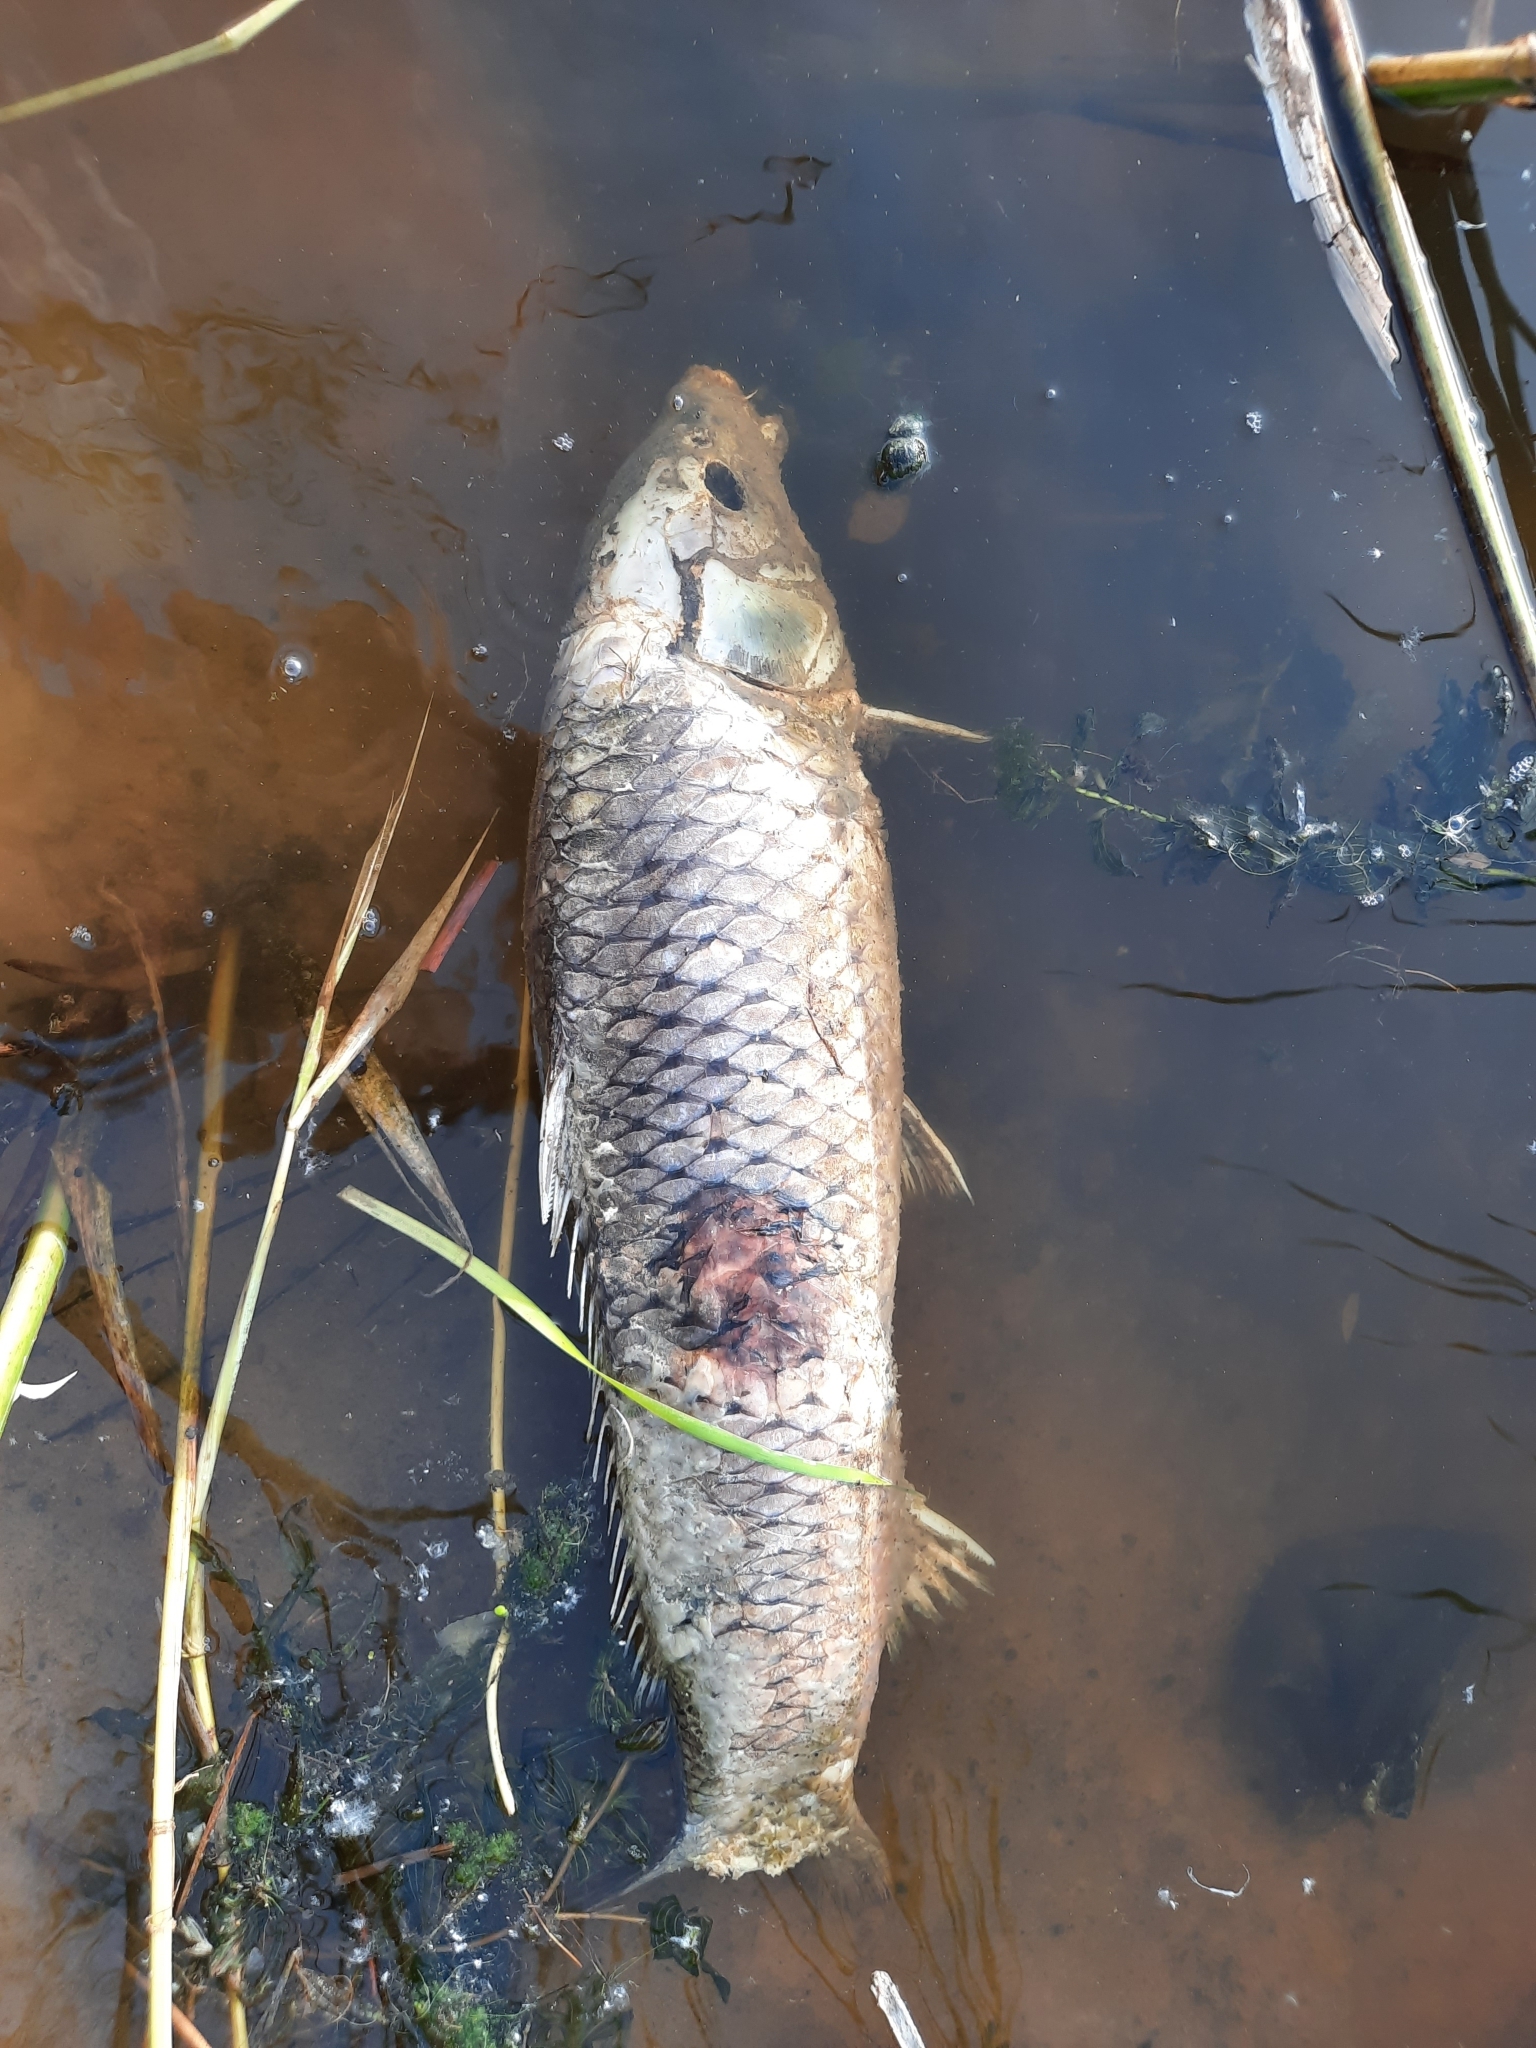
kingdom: Animalia
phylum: Chordata
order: Cypriniformes
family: Cyprinidae
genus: Cyprinus
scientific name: Cyprinus carpio
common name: Common carp
